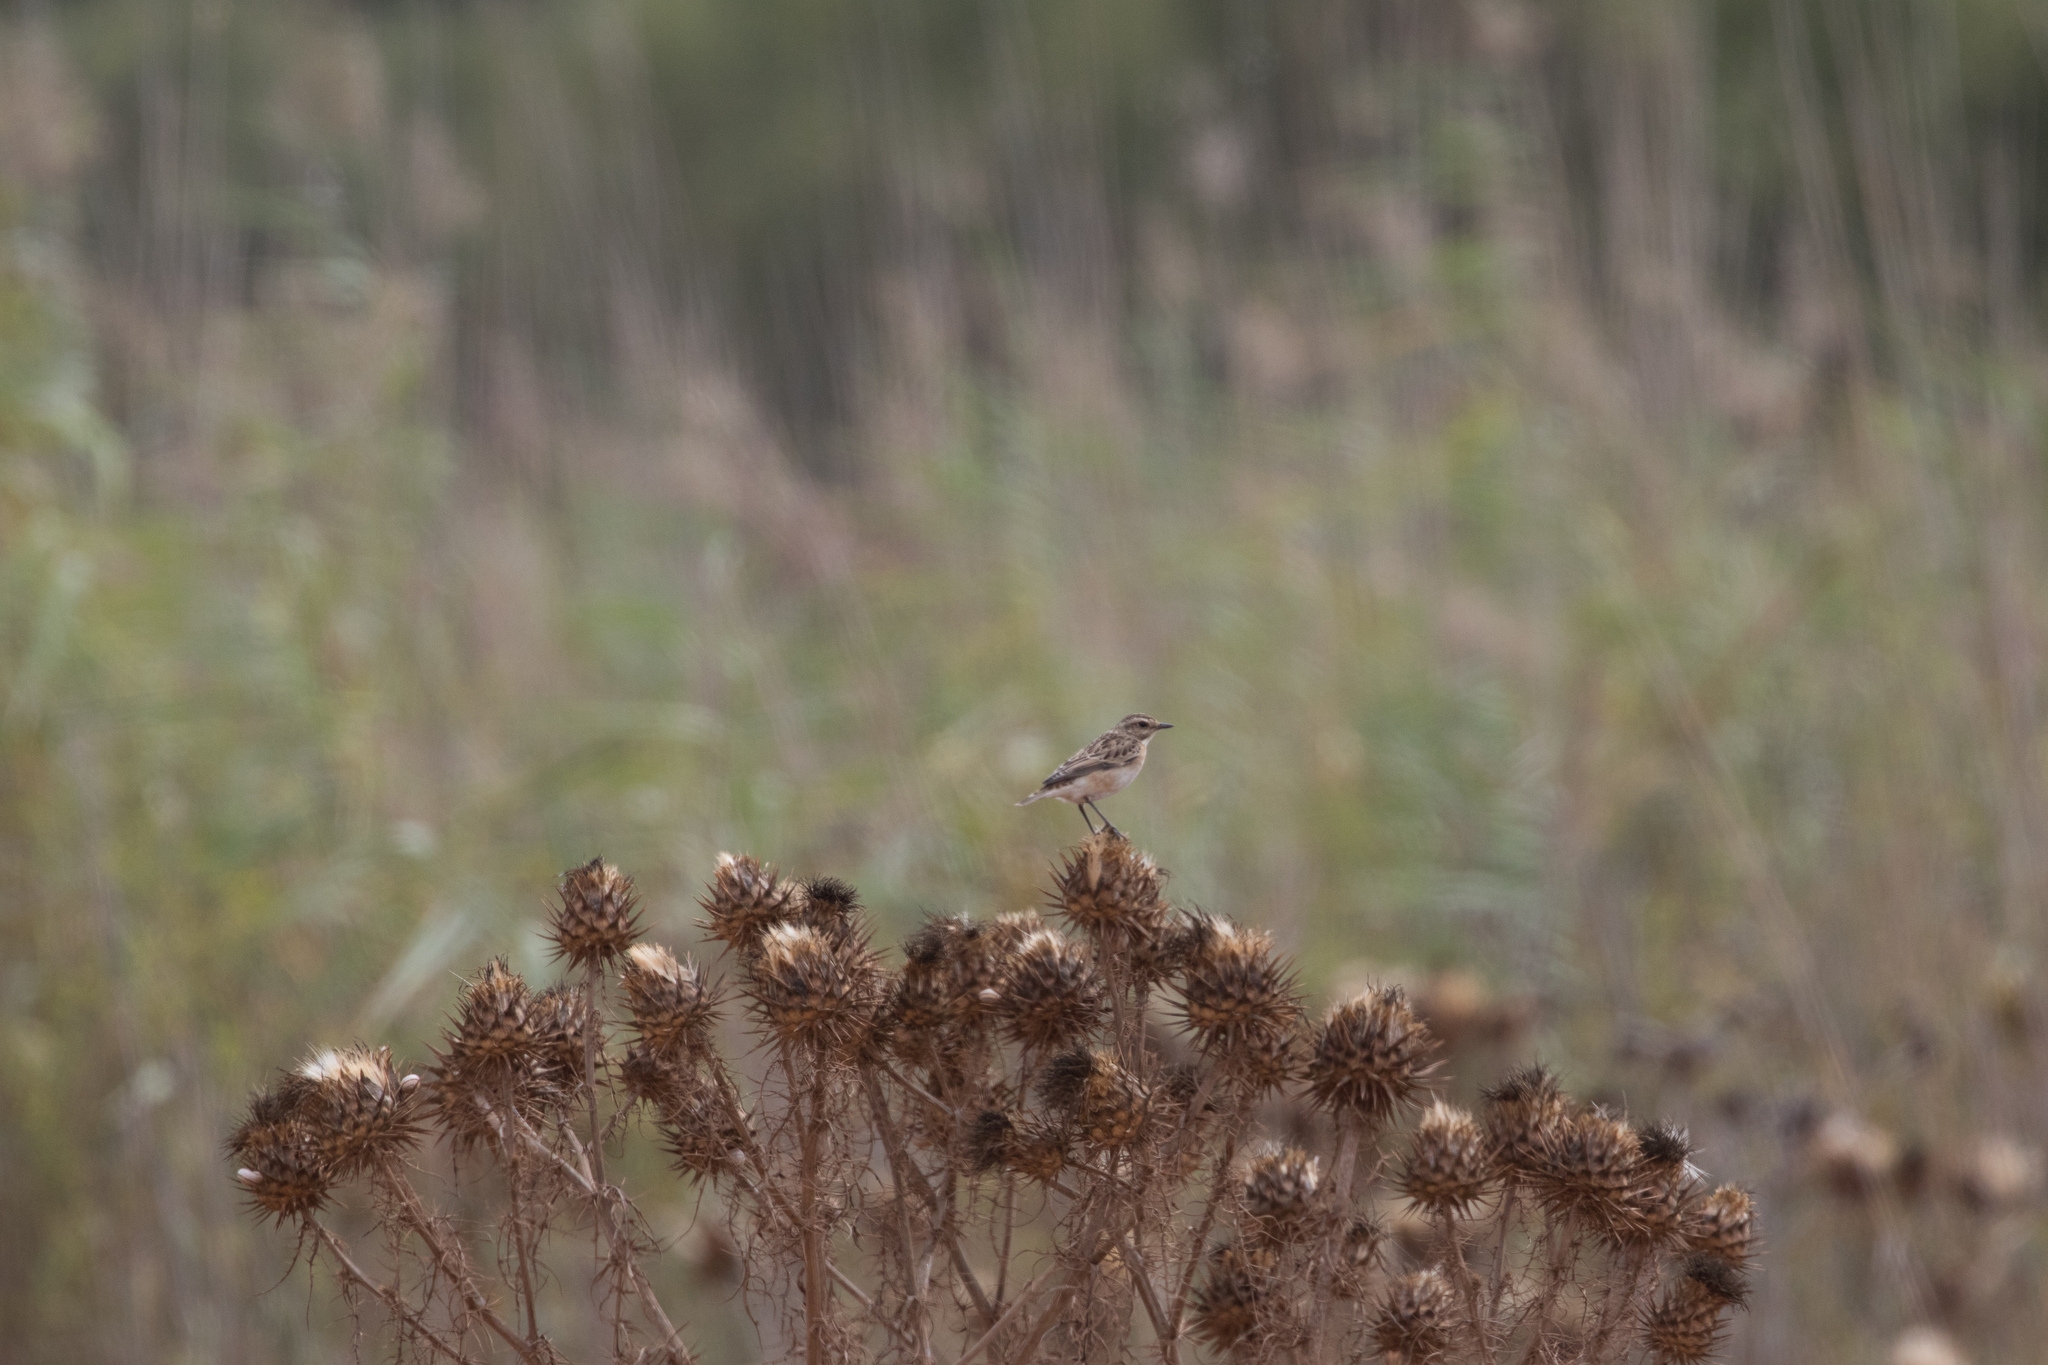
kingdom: Animalia
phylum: Chordata
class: Aves
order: Passeriformes
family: Muscicapidae
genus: Saxicola
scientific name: Saxicola rubetra
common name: Whinchat
